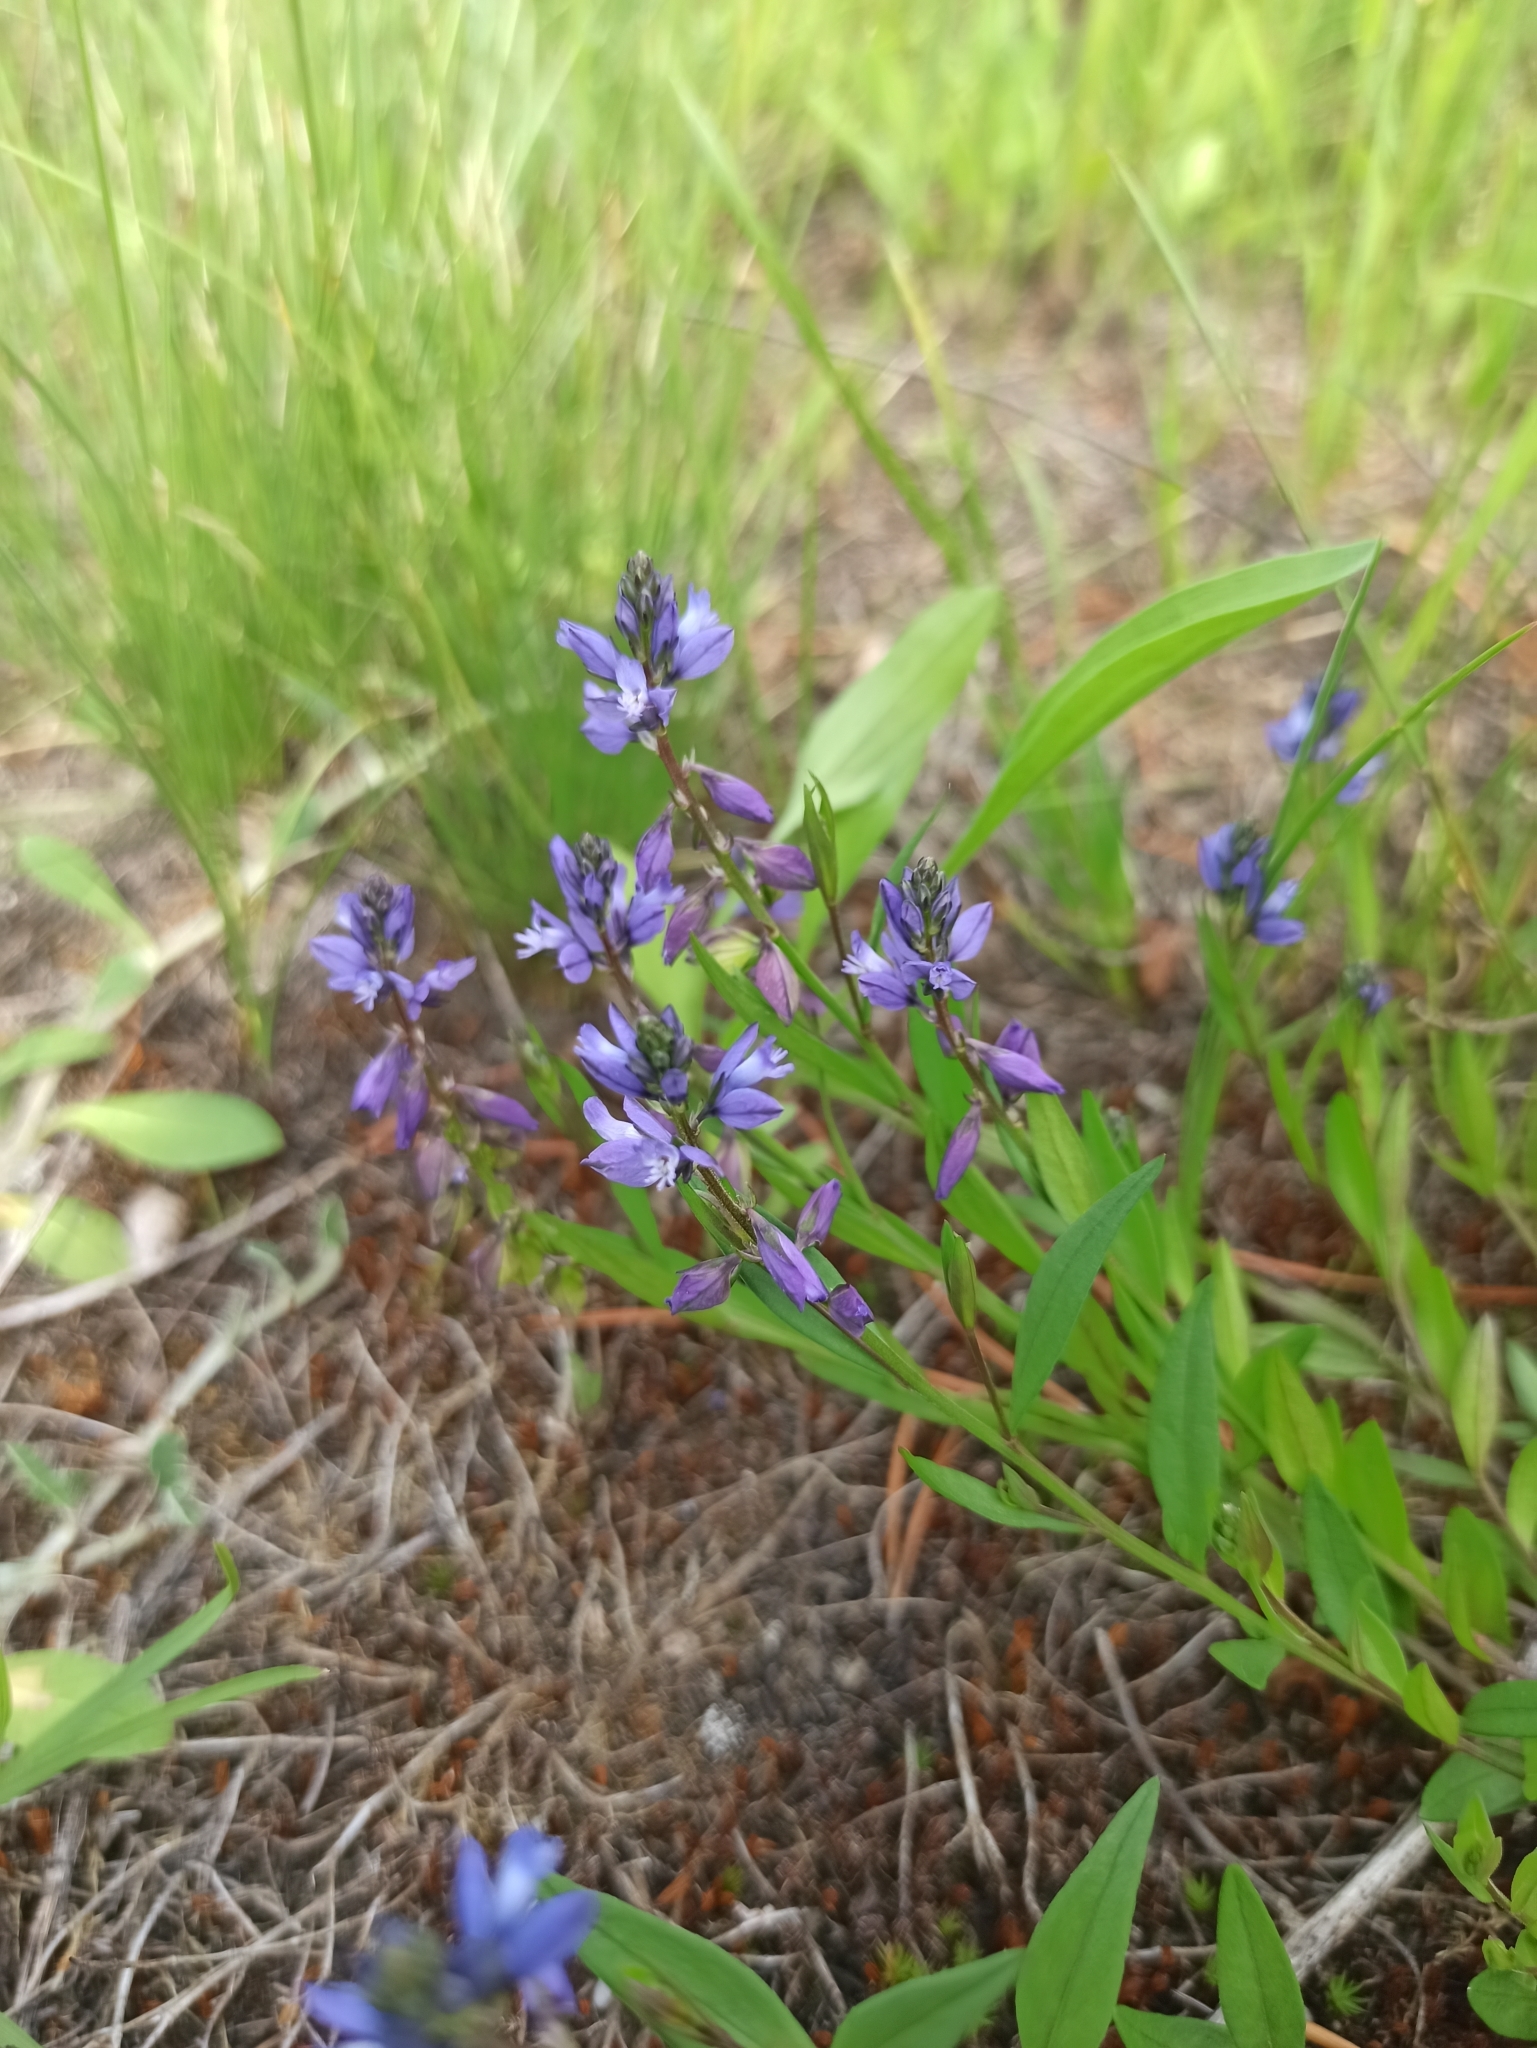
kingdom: Plantae
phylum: Tracheophyta
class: Magnoliopsida
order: Fabales
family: Polygalaceae
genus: Polygala
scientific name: Polygala vulgaris
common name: Common milkwort
